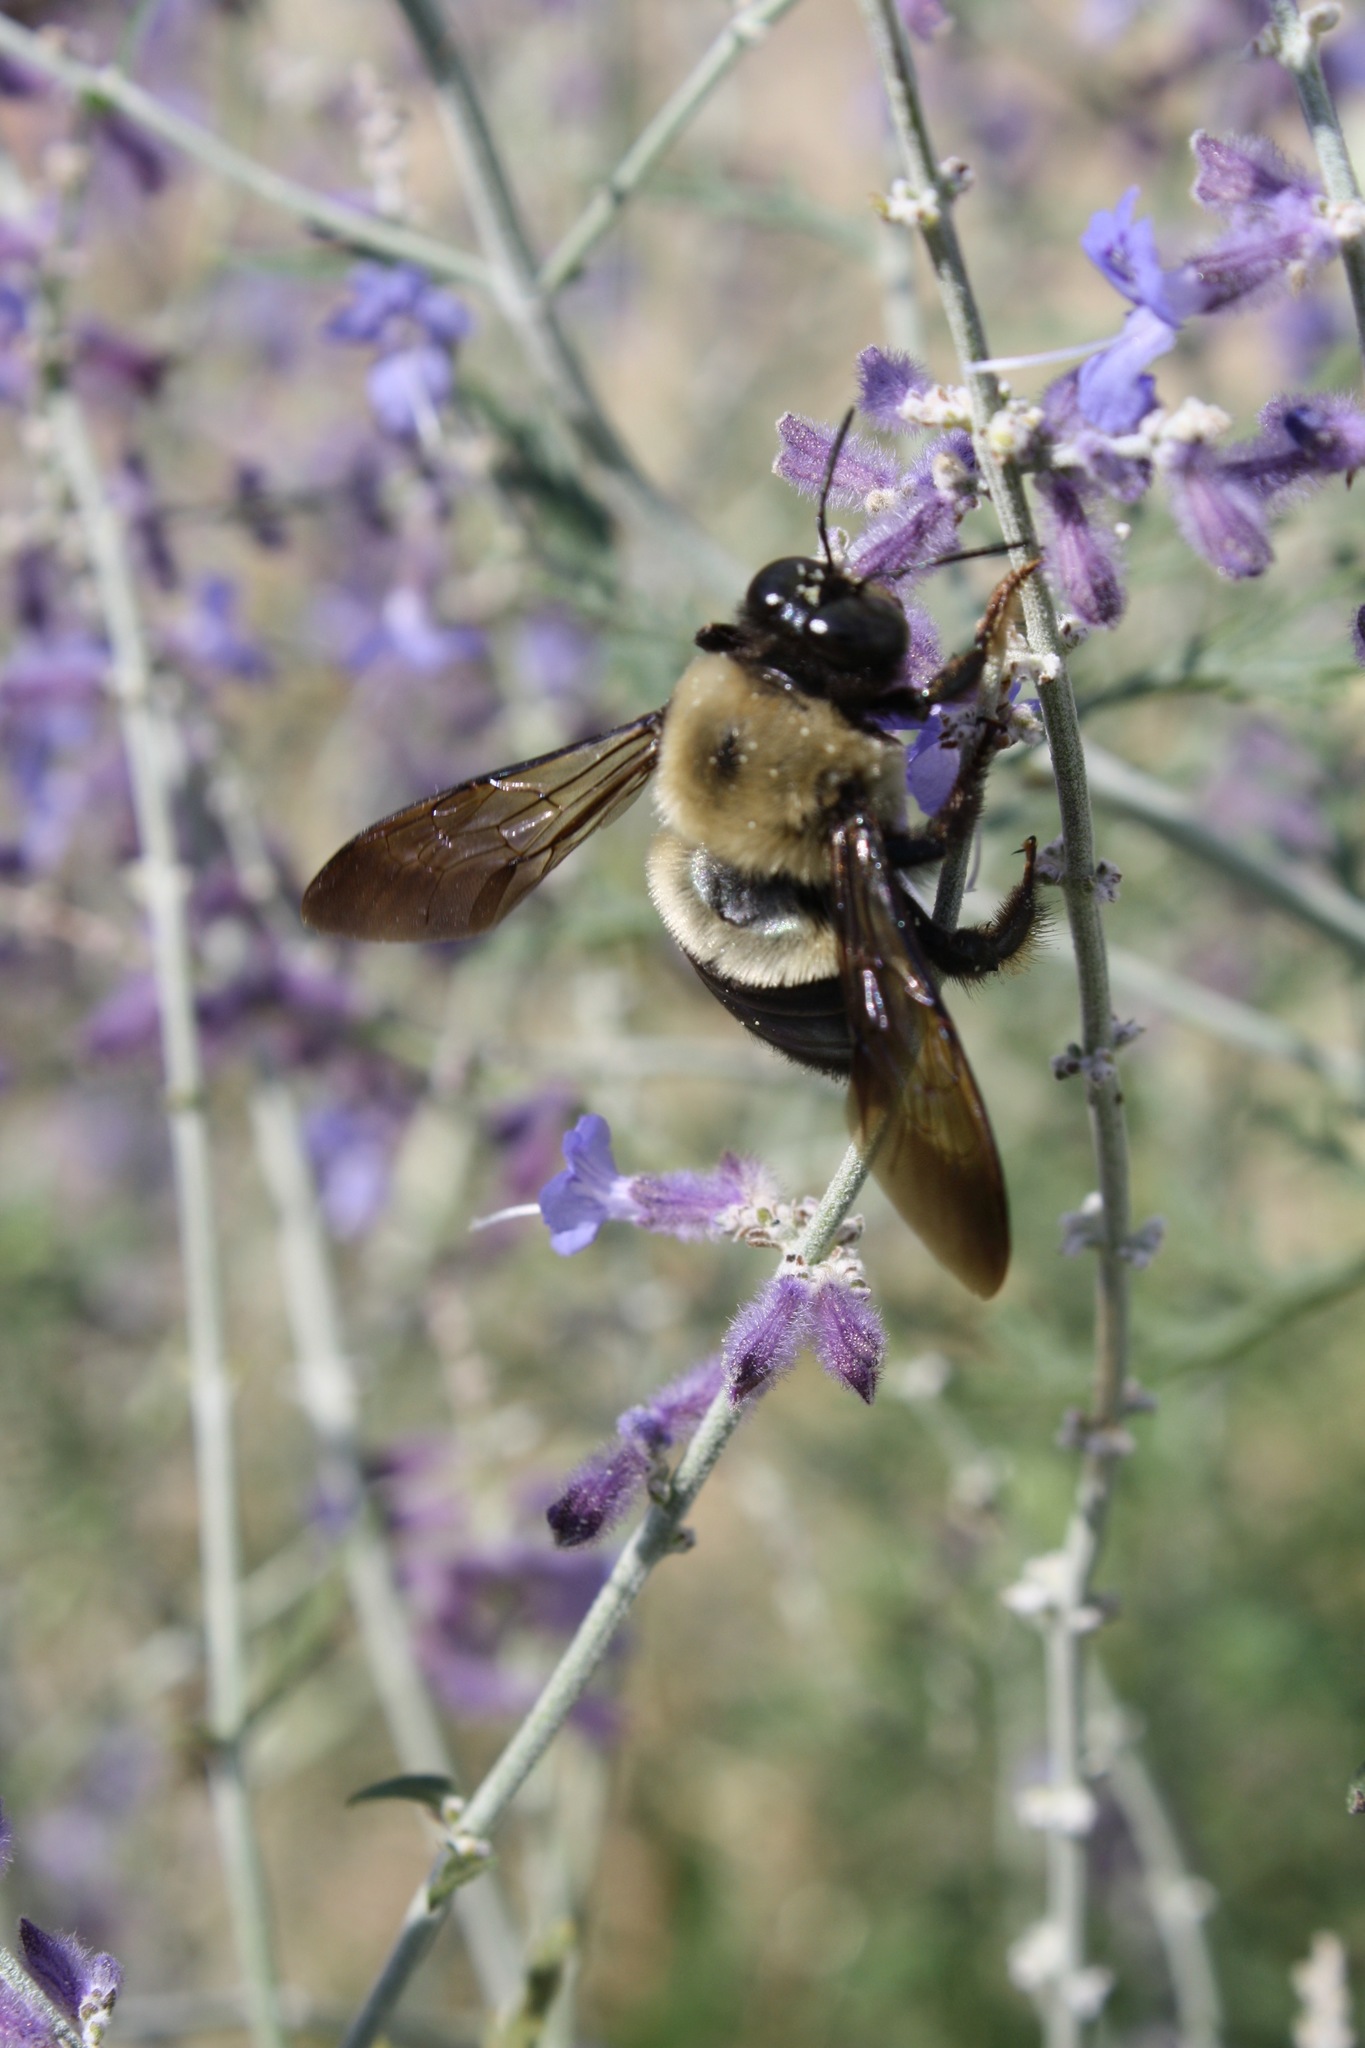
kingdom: Animalia
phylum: Arthropoda
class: Insecta
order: Hymenoptera
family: Apidae
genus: Xylocopa
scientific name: Xylocopa virginica
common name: Carpenter bee
